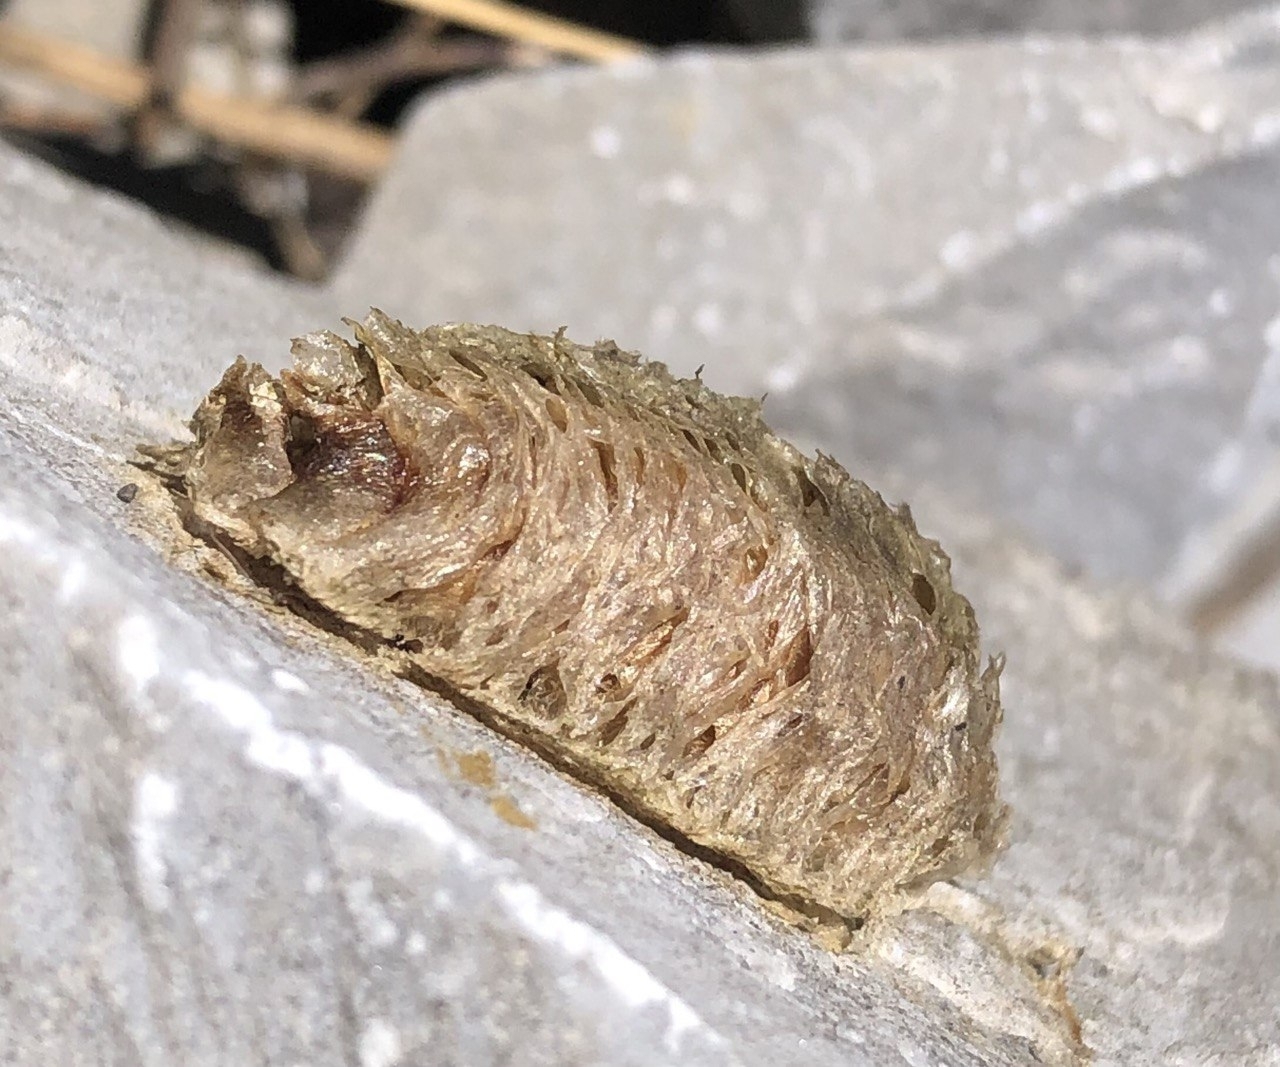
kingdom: Animalia
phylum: Arthropoda
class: Insecta
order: Mantodea
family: Mantidae
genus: Mantis
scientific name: Mantis religiosa
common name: Praying mantis
